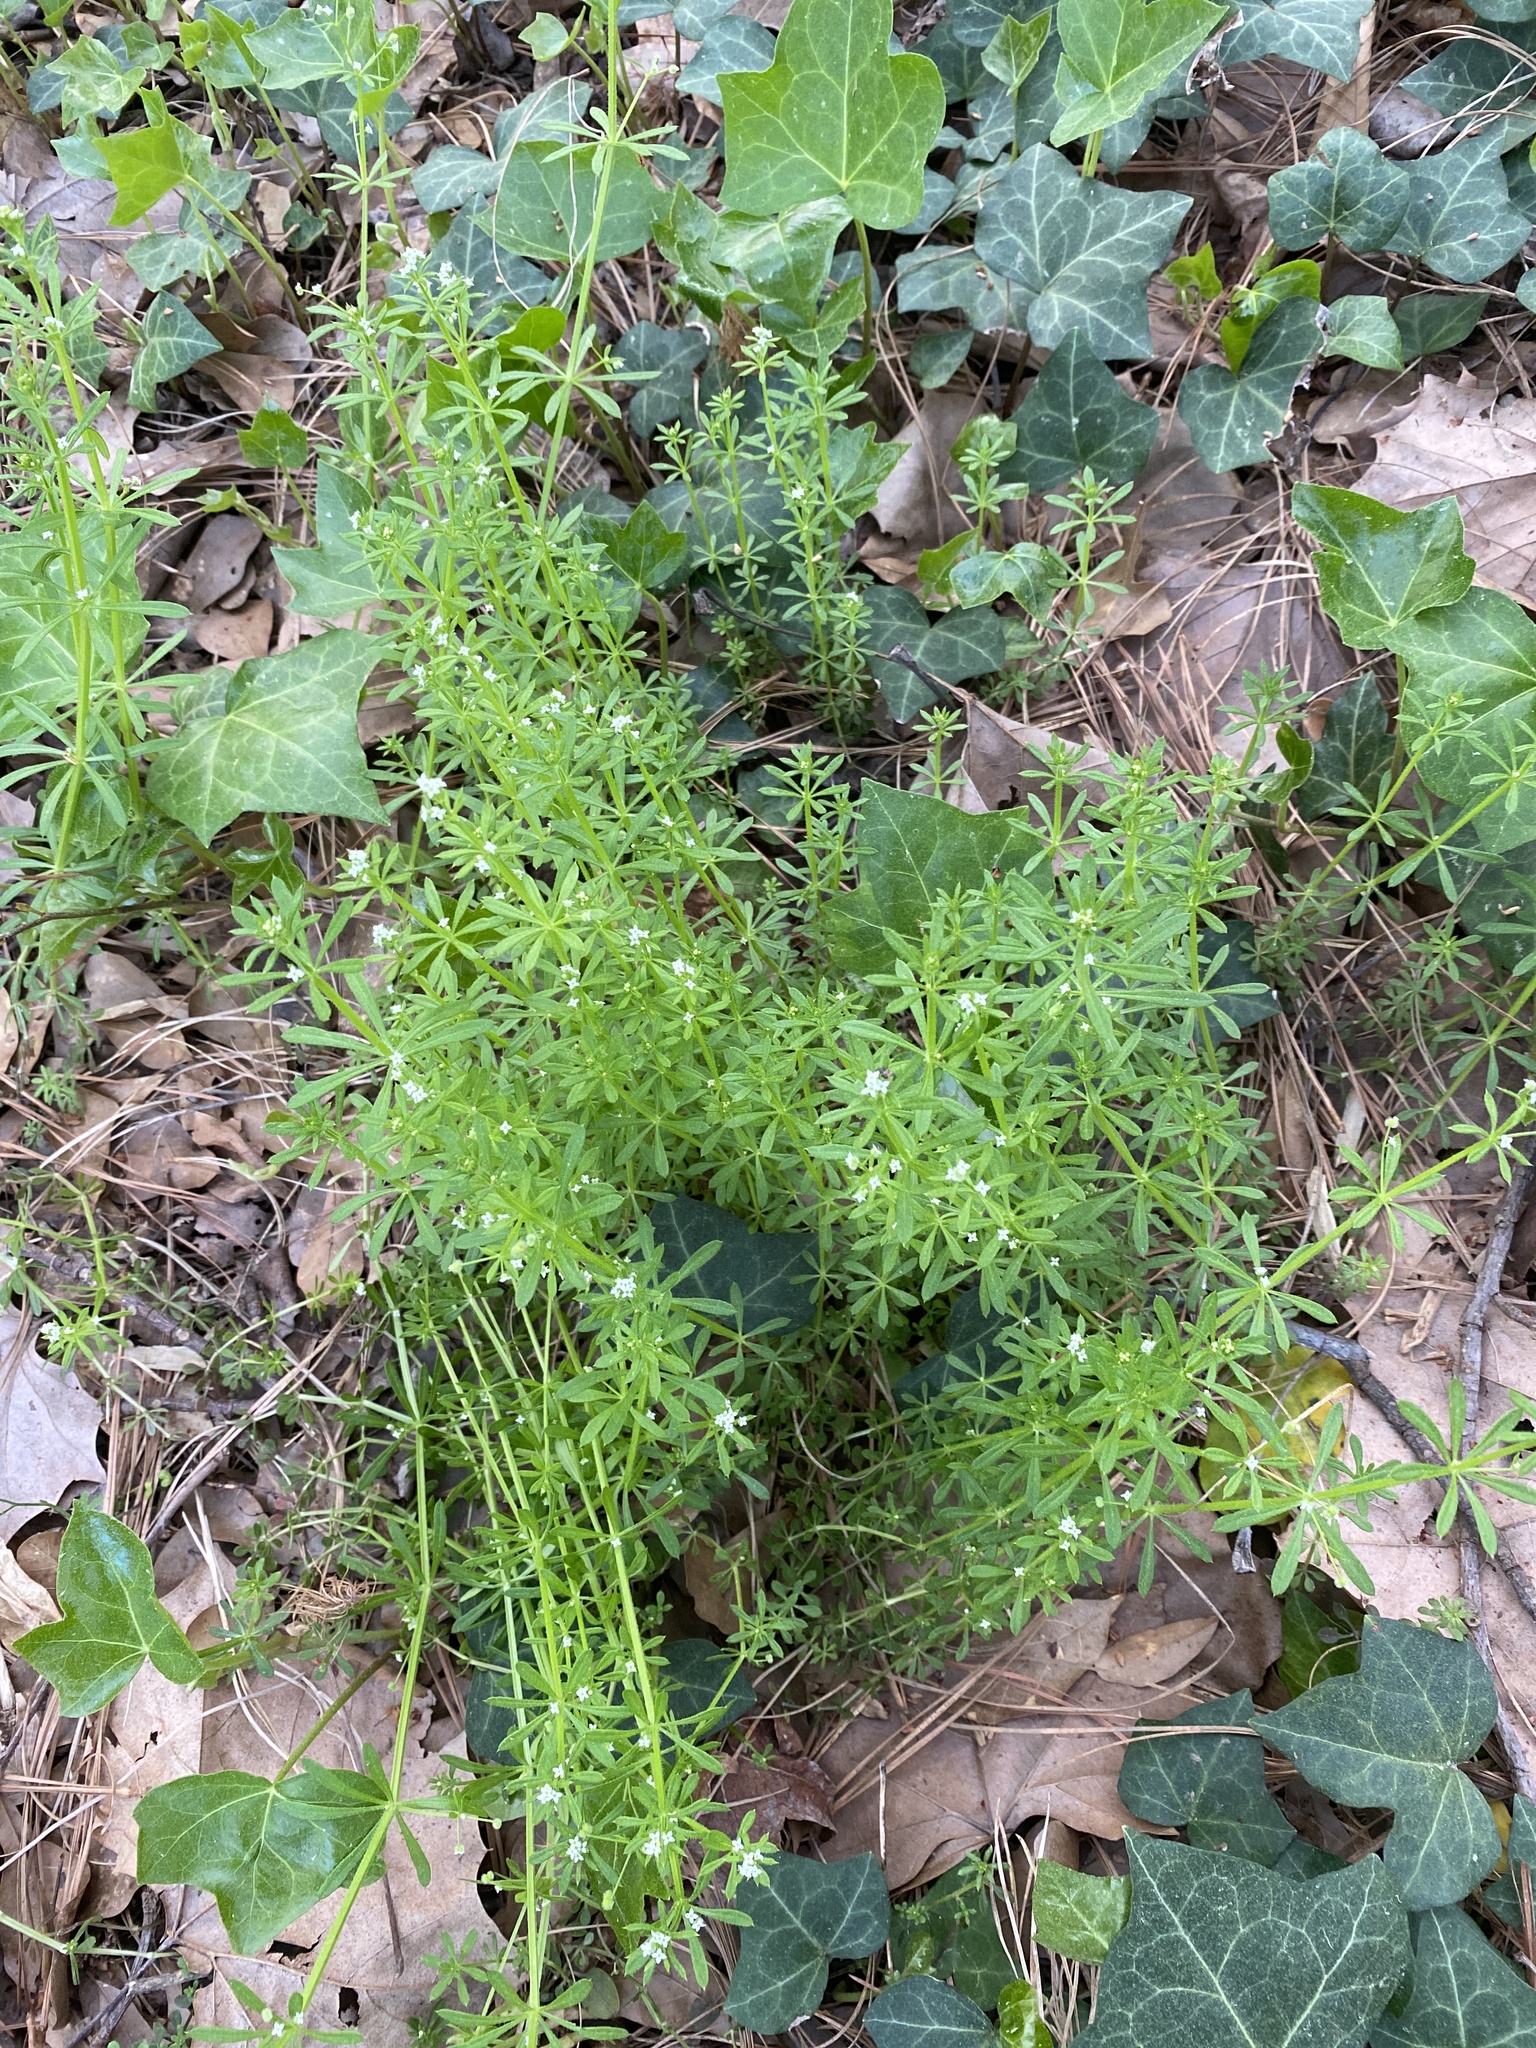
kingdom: Plantae
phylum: Tracheophyta
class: Magnoliopsida
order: Gentianales
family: Rubiaceae
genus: Galium
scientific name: Galium aparine
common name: Cleavers
